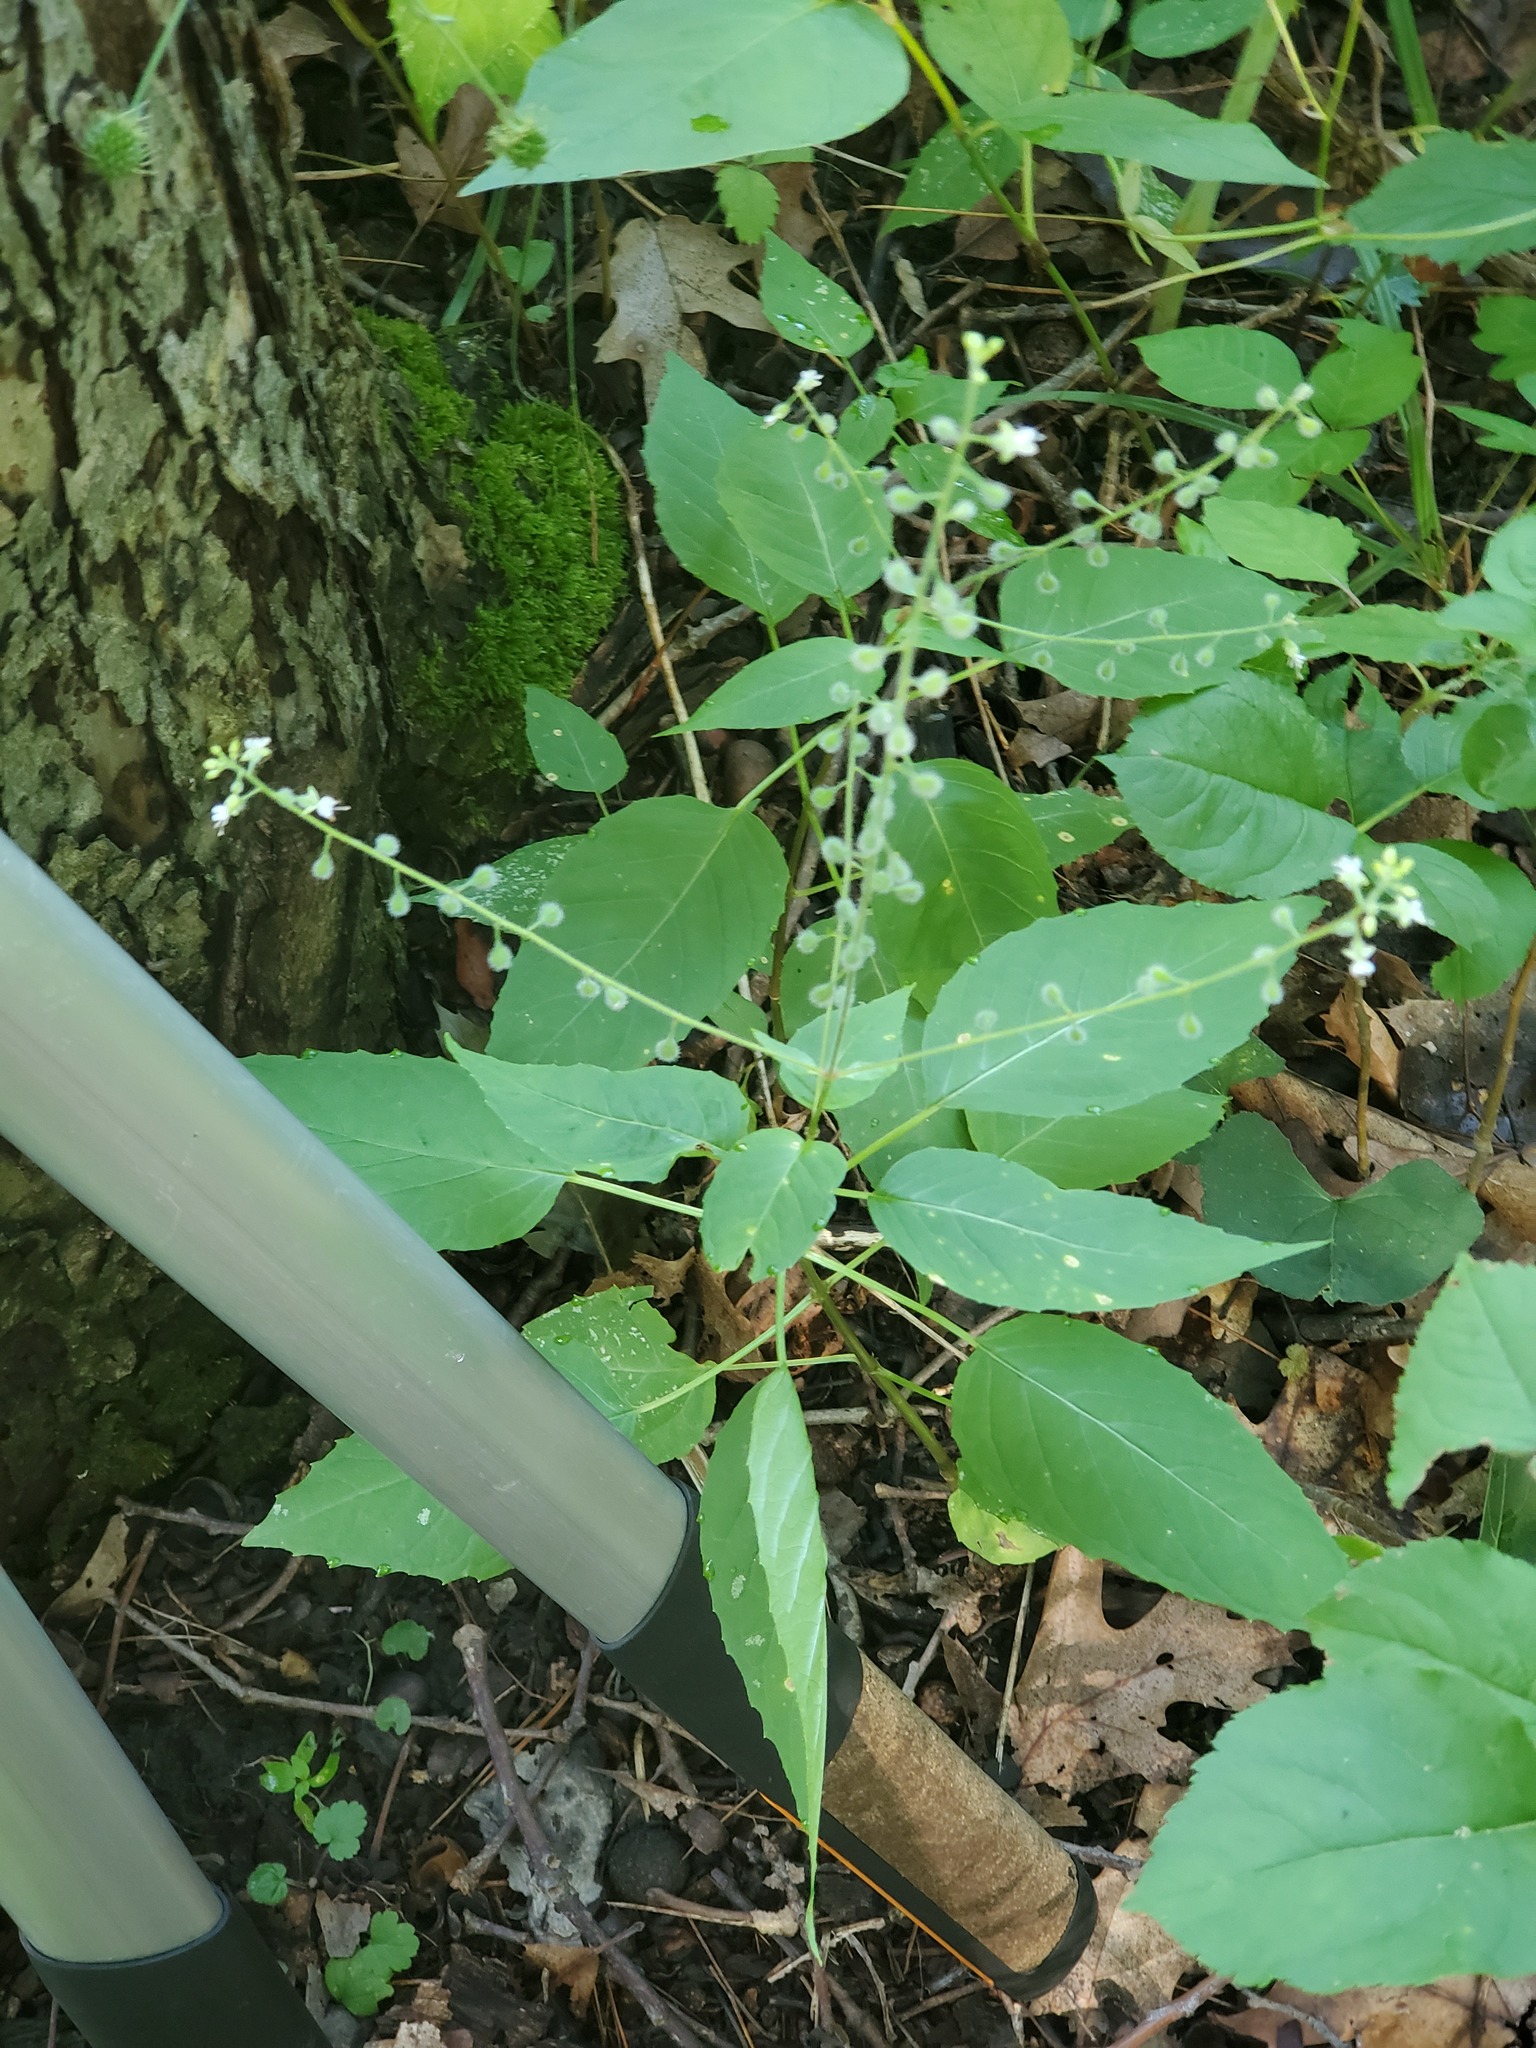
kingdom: Plantae
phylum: Tracheophyta
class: Magnoliopsida
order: Myrtales
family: Onagraceae
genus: Circaea
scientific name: Circaea canadensis
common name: Broad-leaved enchanter's nightshade
